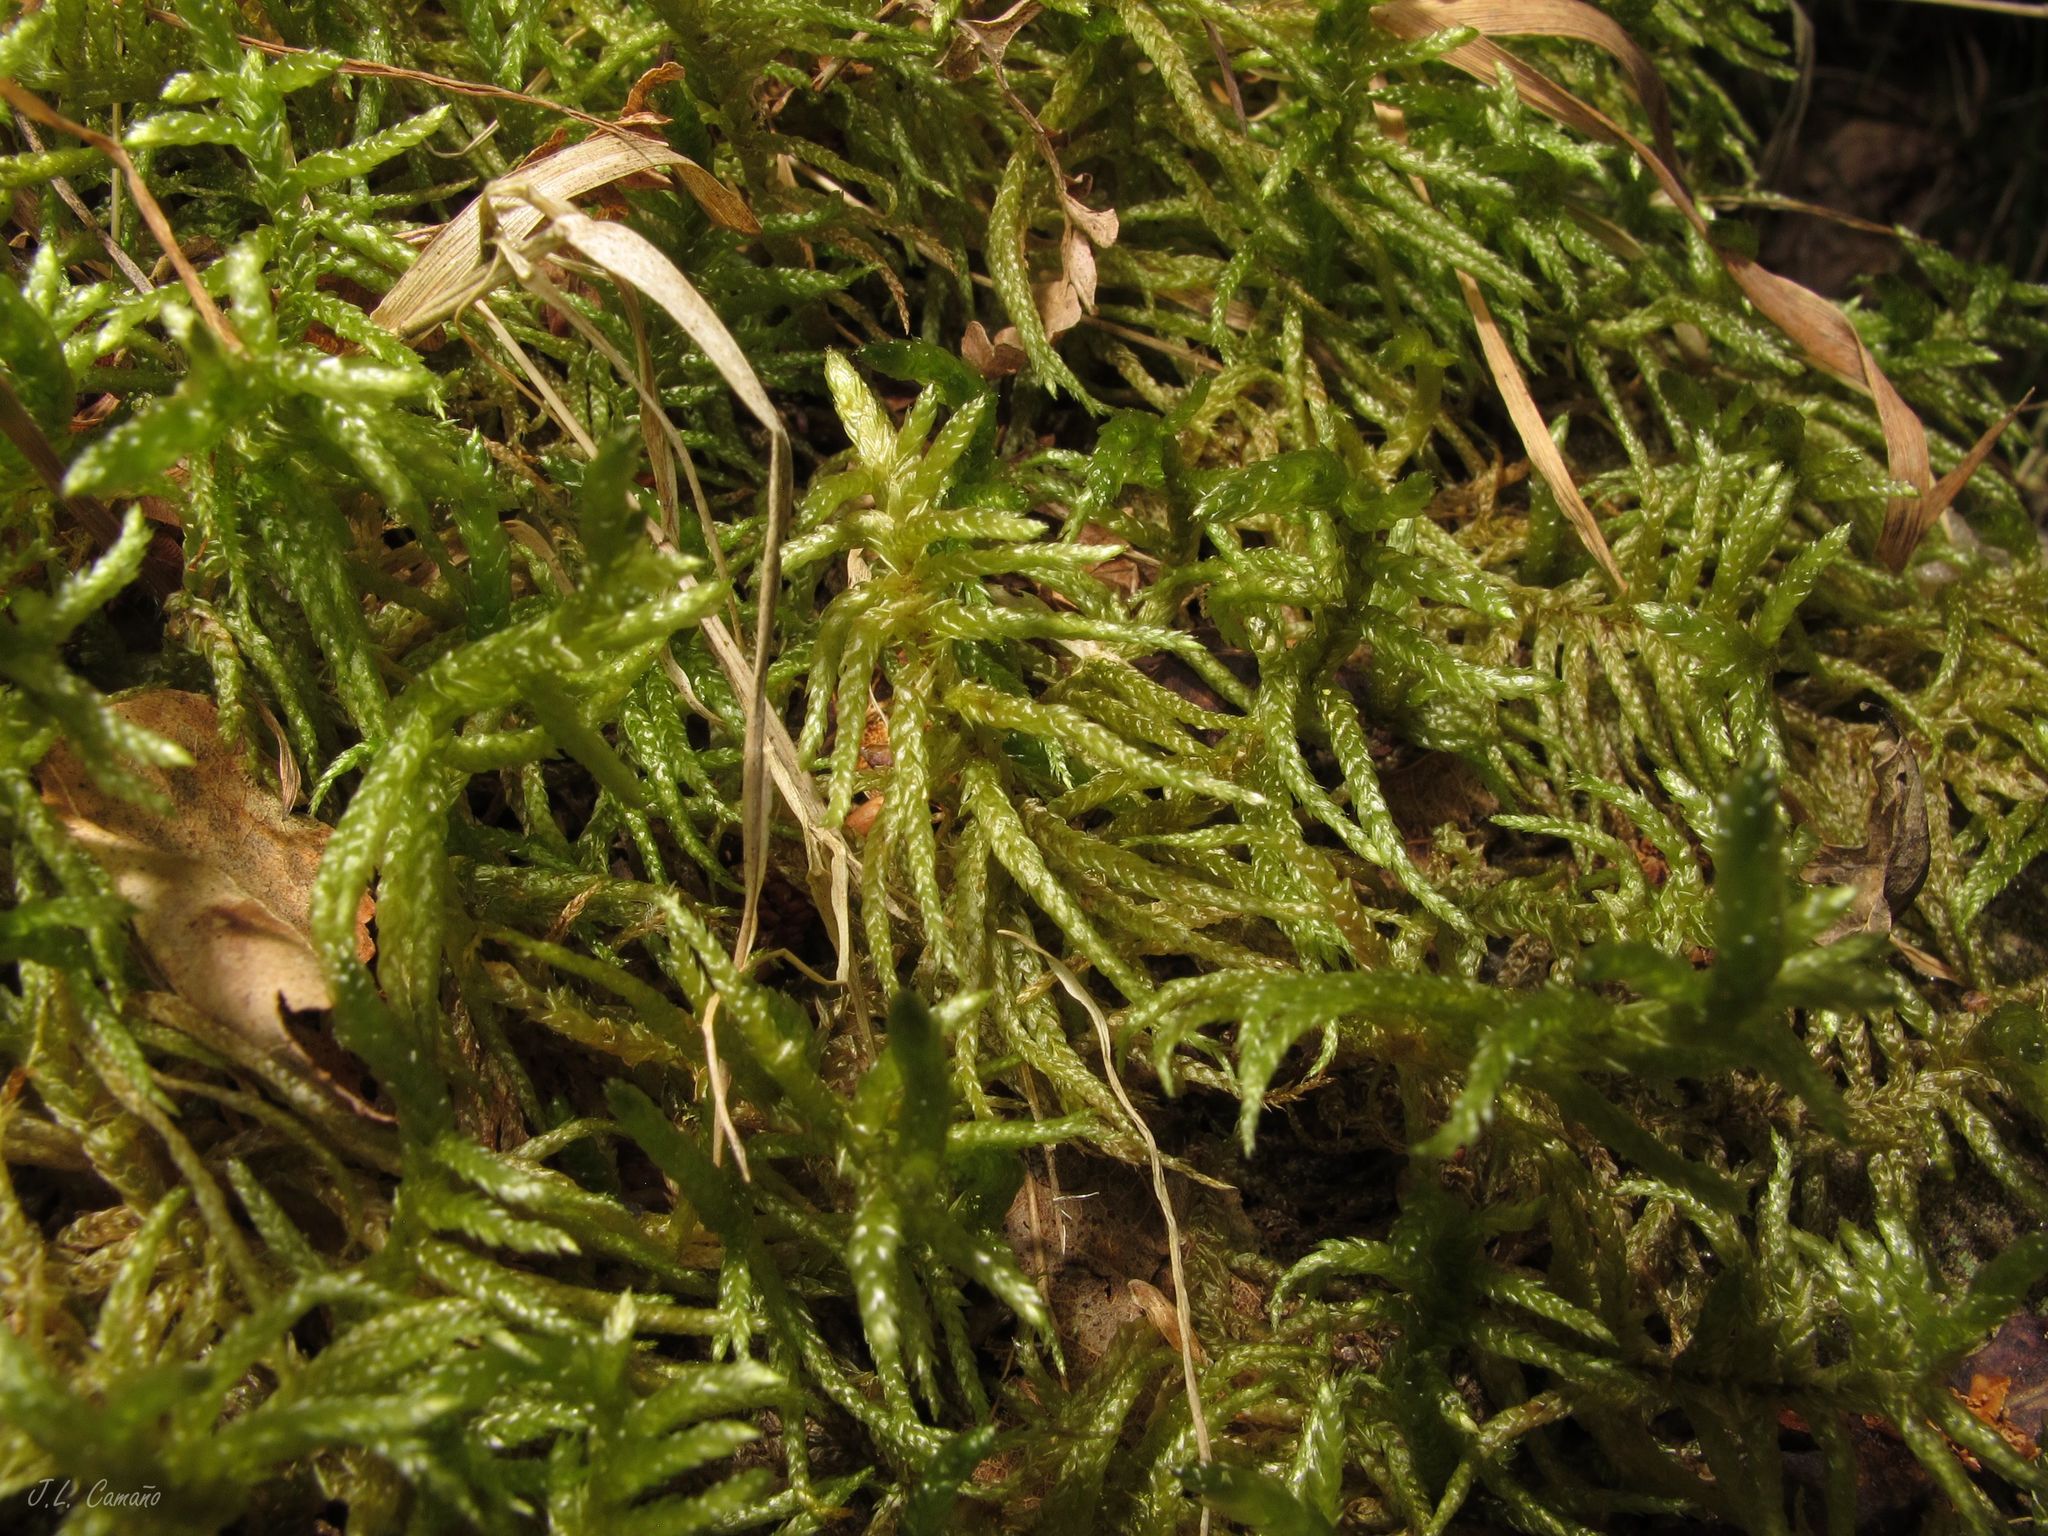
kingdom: Plantae
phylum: Bryophyta
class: Bryopsida
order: Hypnales
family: Brachytheciaceae
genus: Pseudoscleropodium
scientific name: Pseudoscleropodium purum
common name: Neat feather-moss
